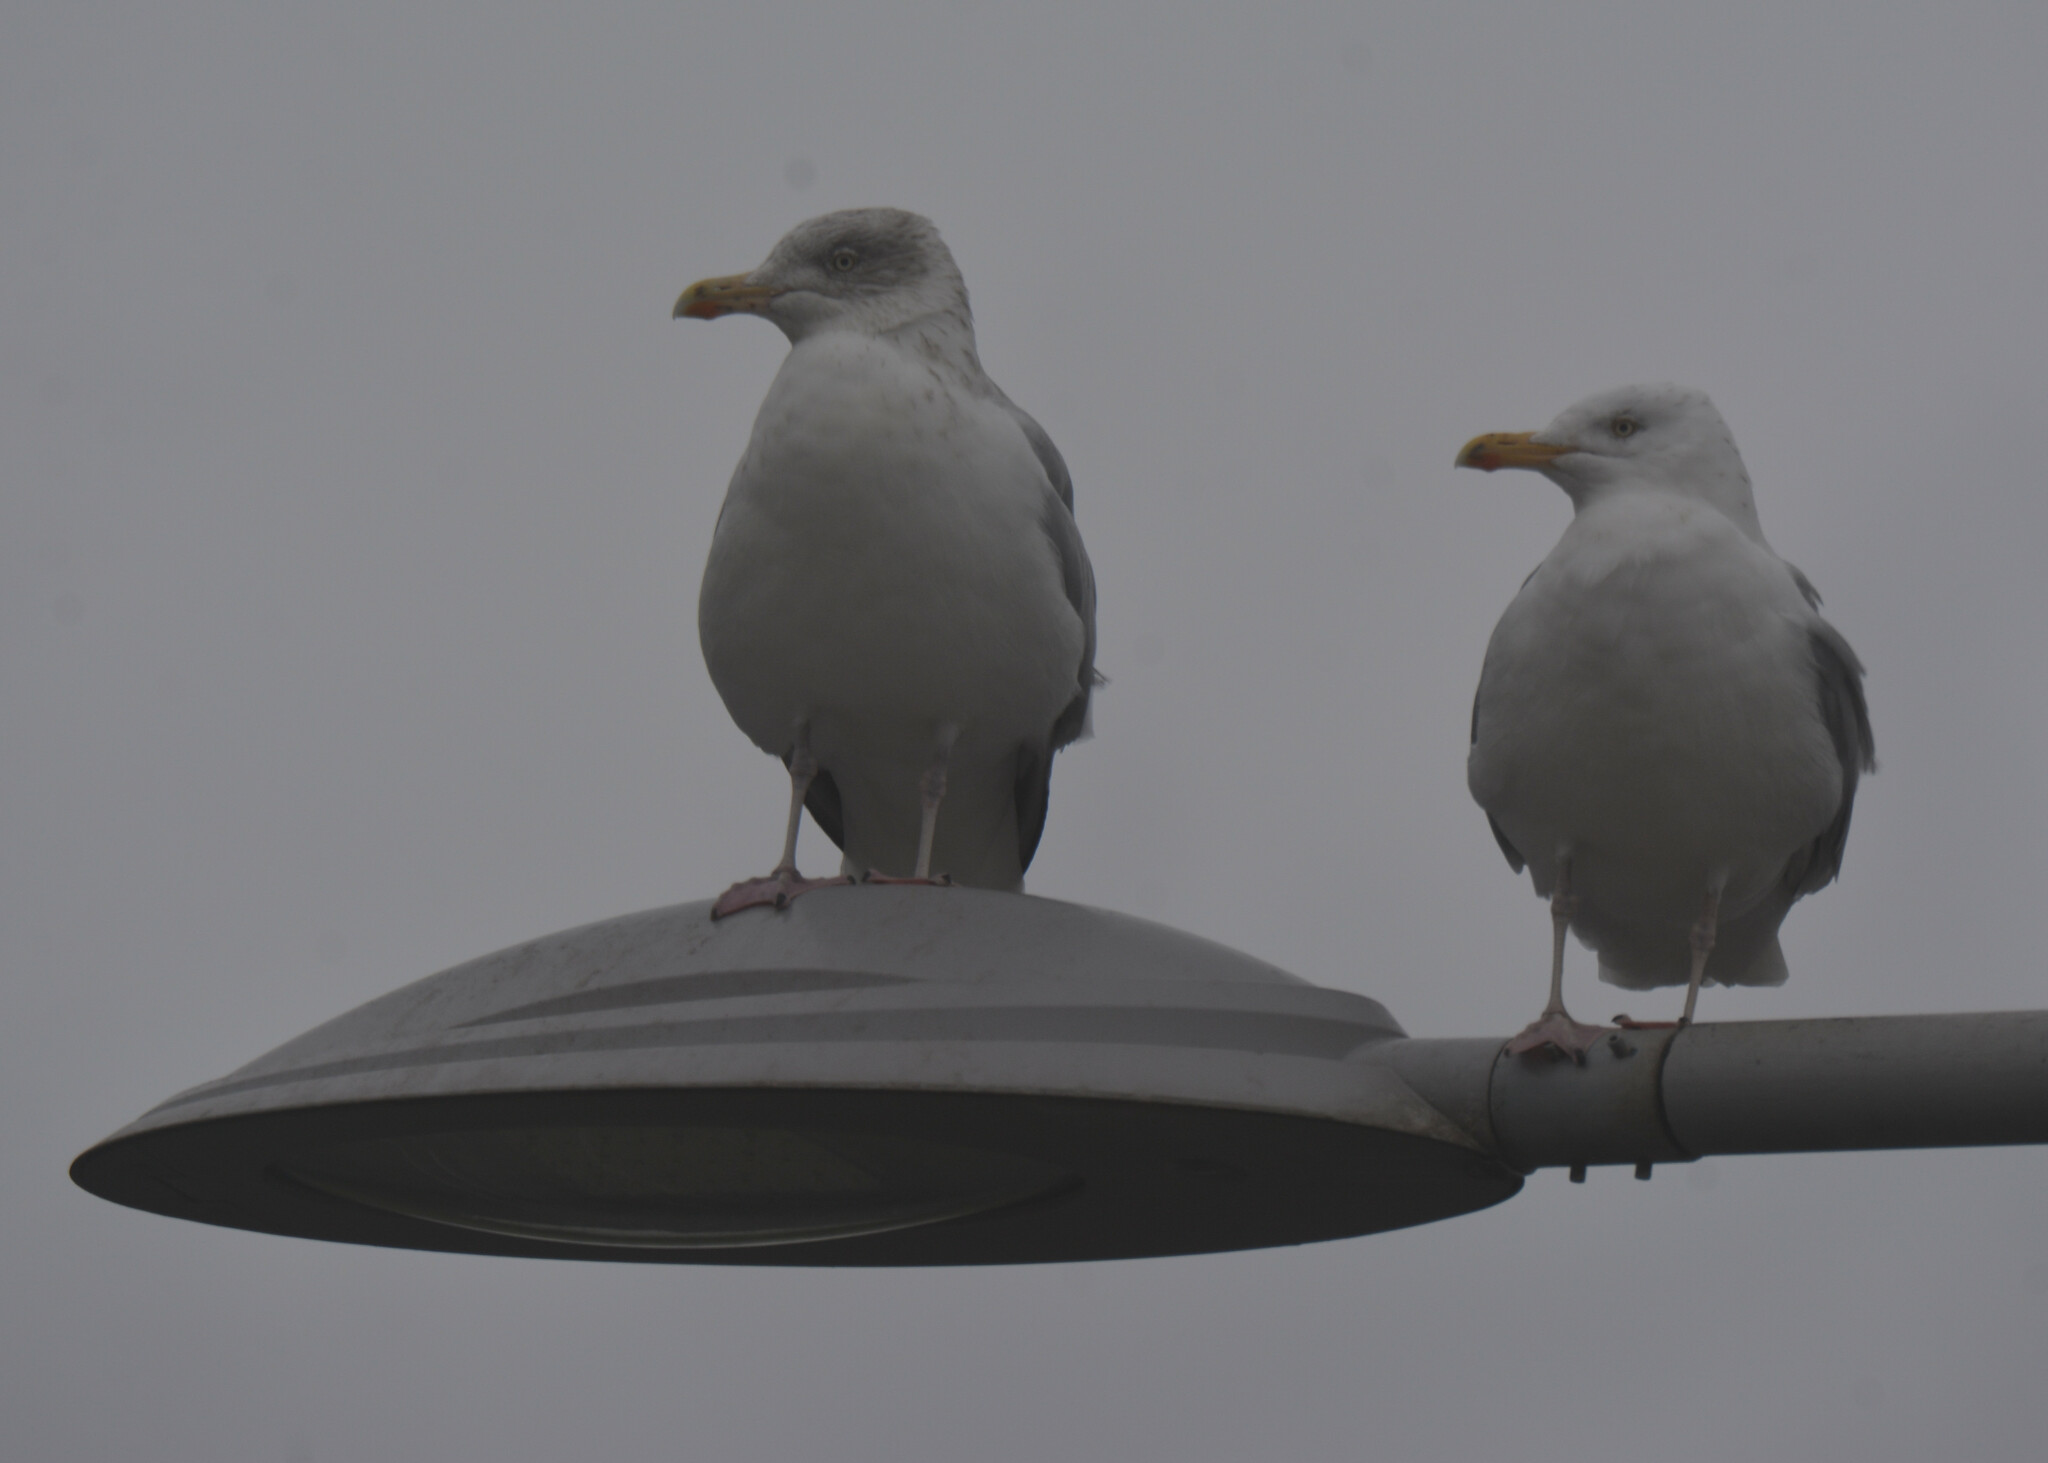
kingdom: Animalia
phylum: Chordata
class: Aves
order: Charadriiformes
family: Laridae
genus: Larus
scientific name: Larus argentatus
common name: Herring gull
